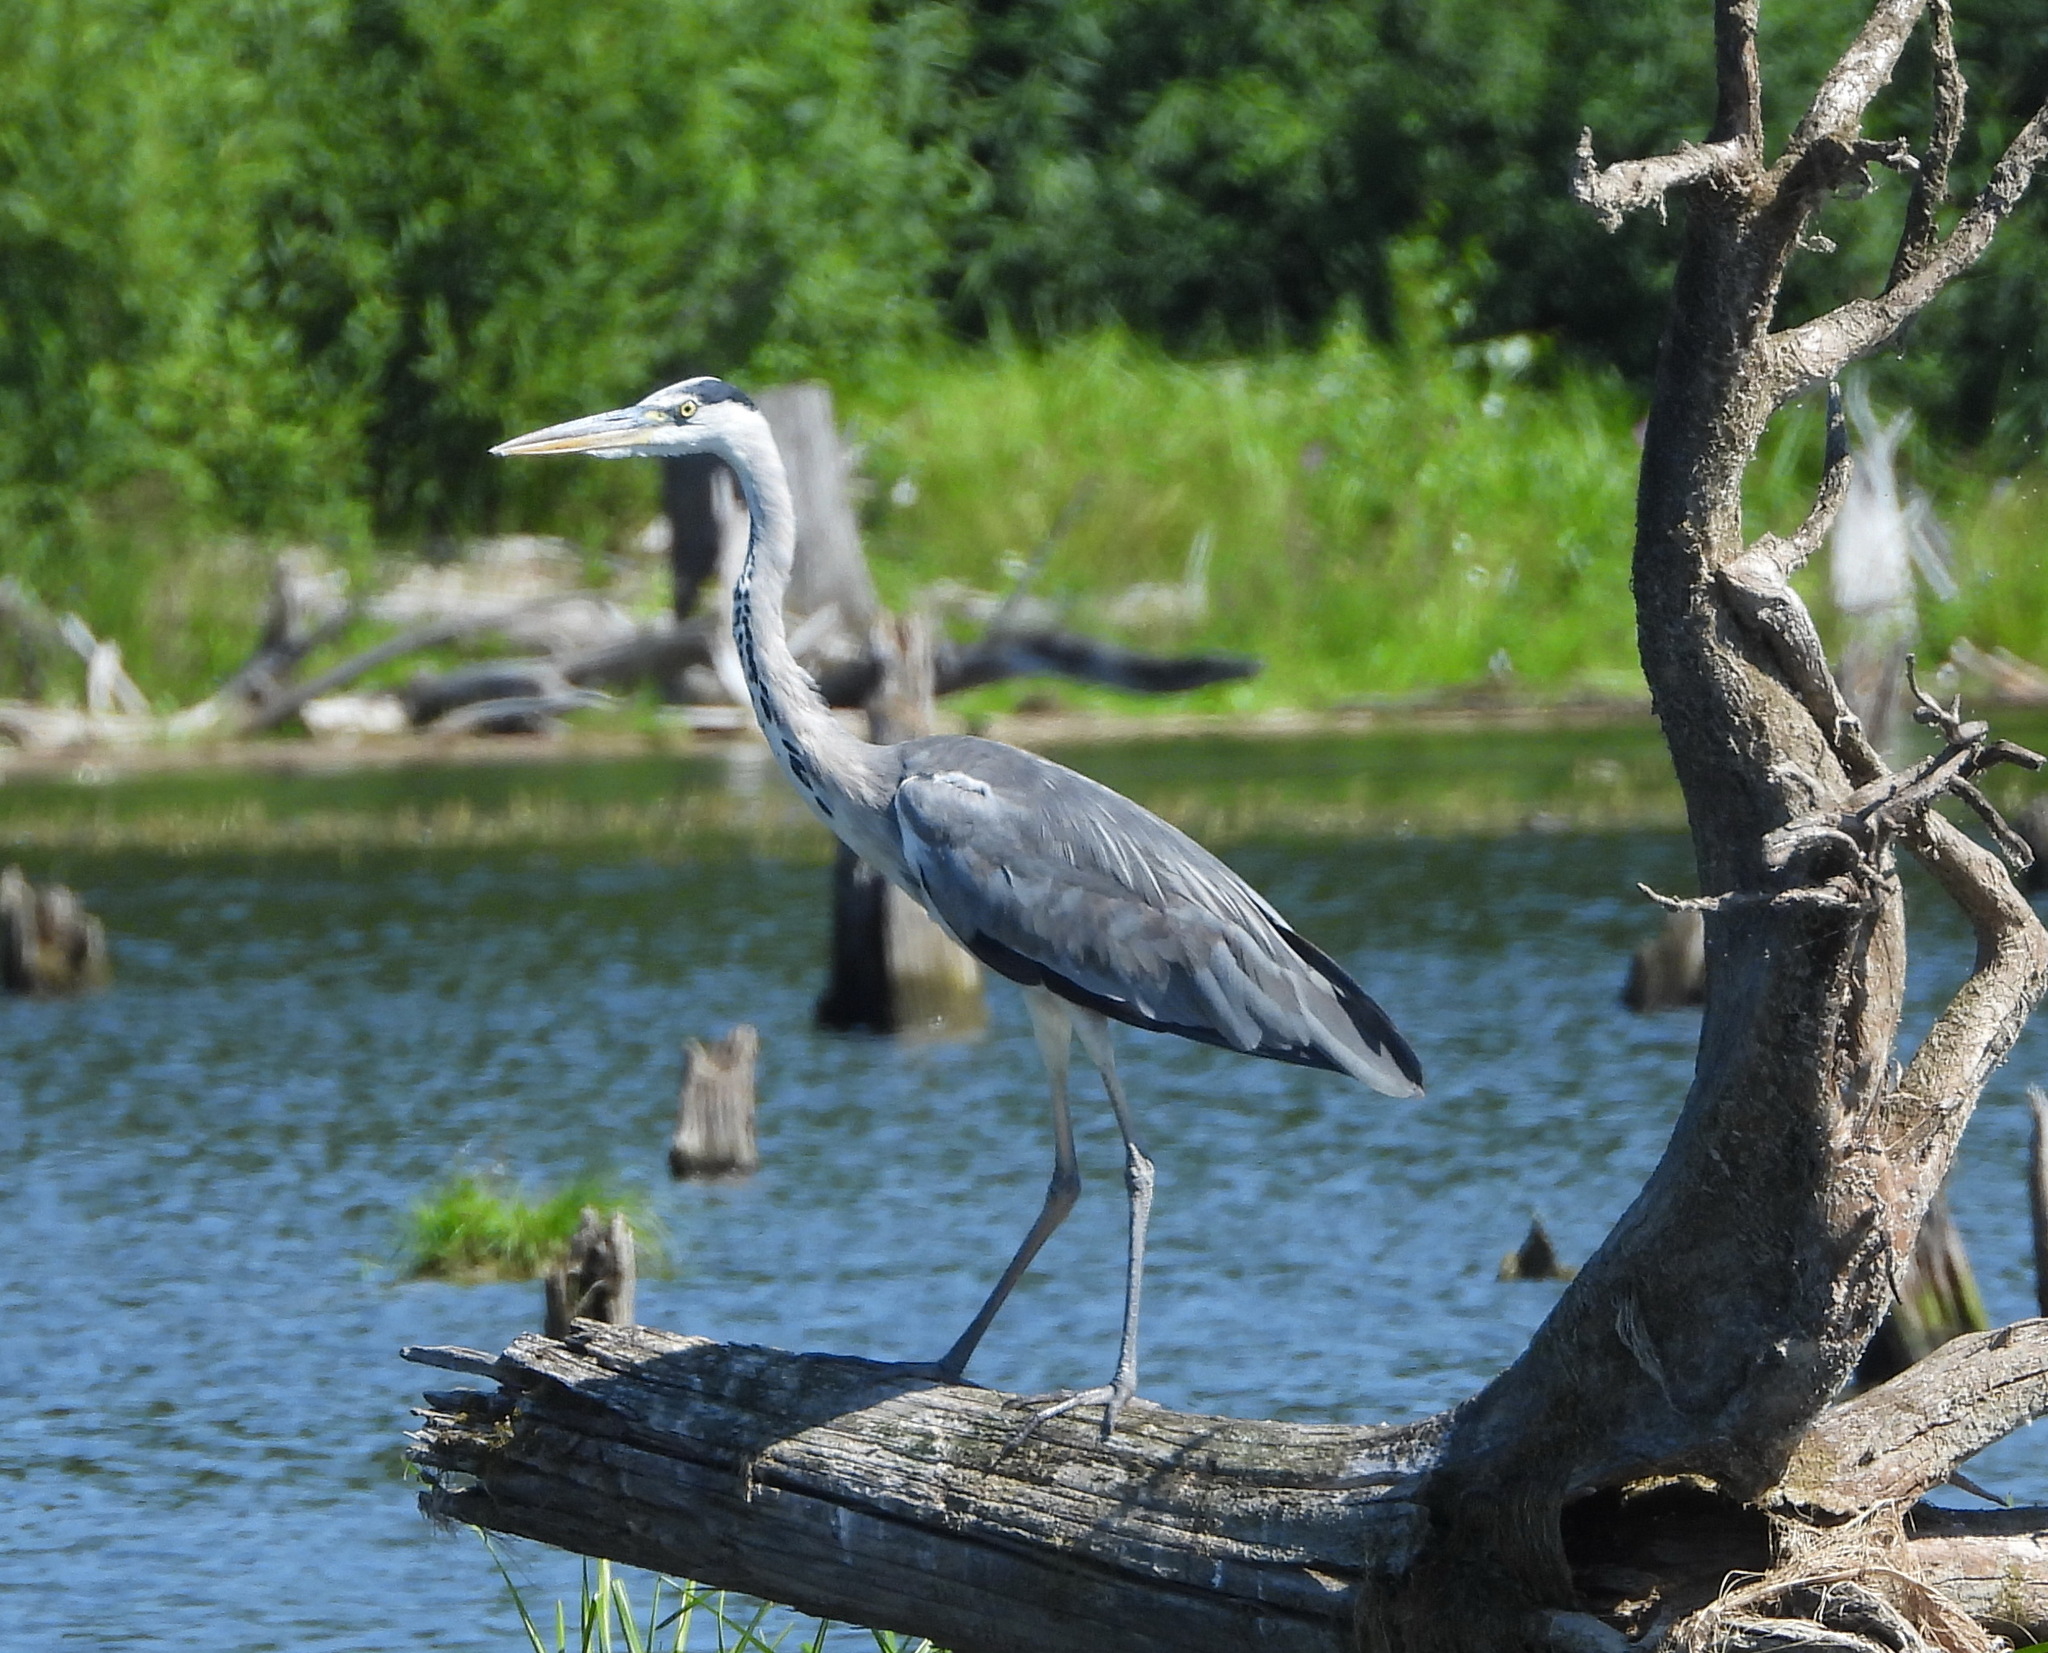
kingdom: Animalia
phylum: Chordata
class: Aves
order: Pelecaniformes
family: Ardeidae
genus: Ardea
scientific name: Ardea cinerea
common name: Grey heron
